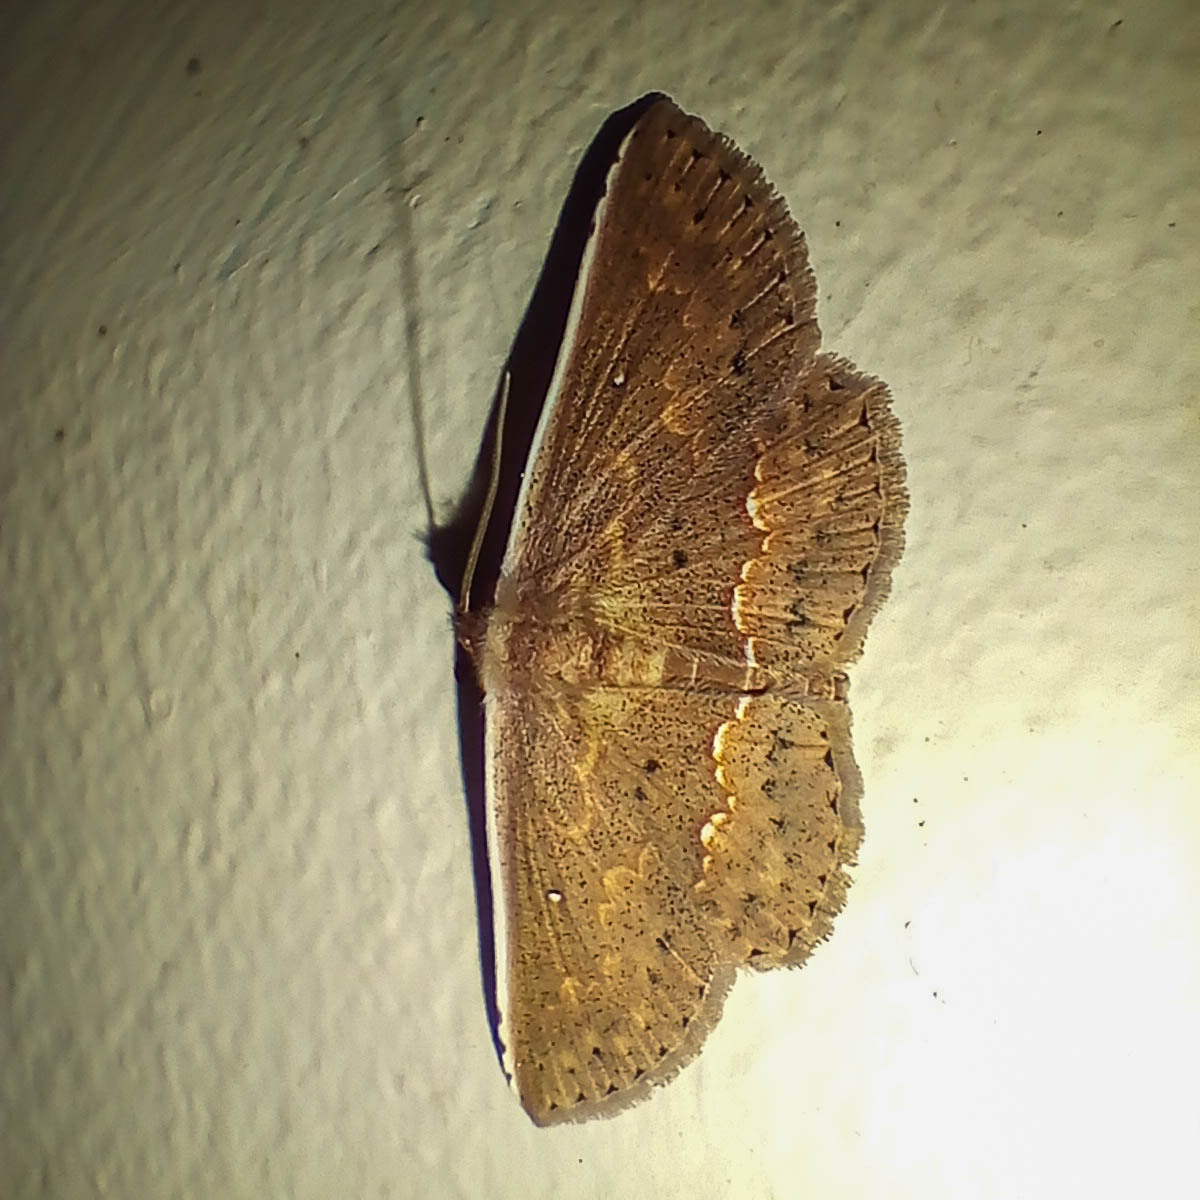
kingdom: Animalia
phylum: Arthropoda
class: Insecta
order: Lepidoptera
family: Noctuidae
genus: Arasada
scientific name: Arasada albicosta
